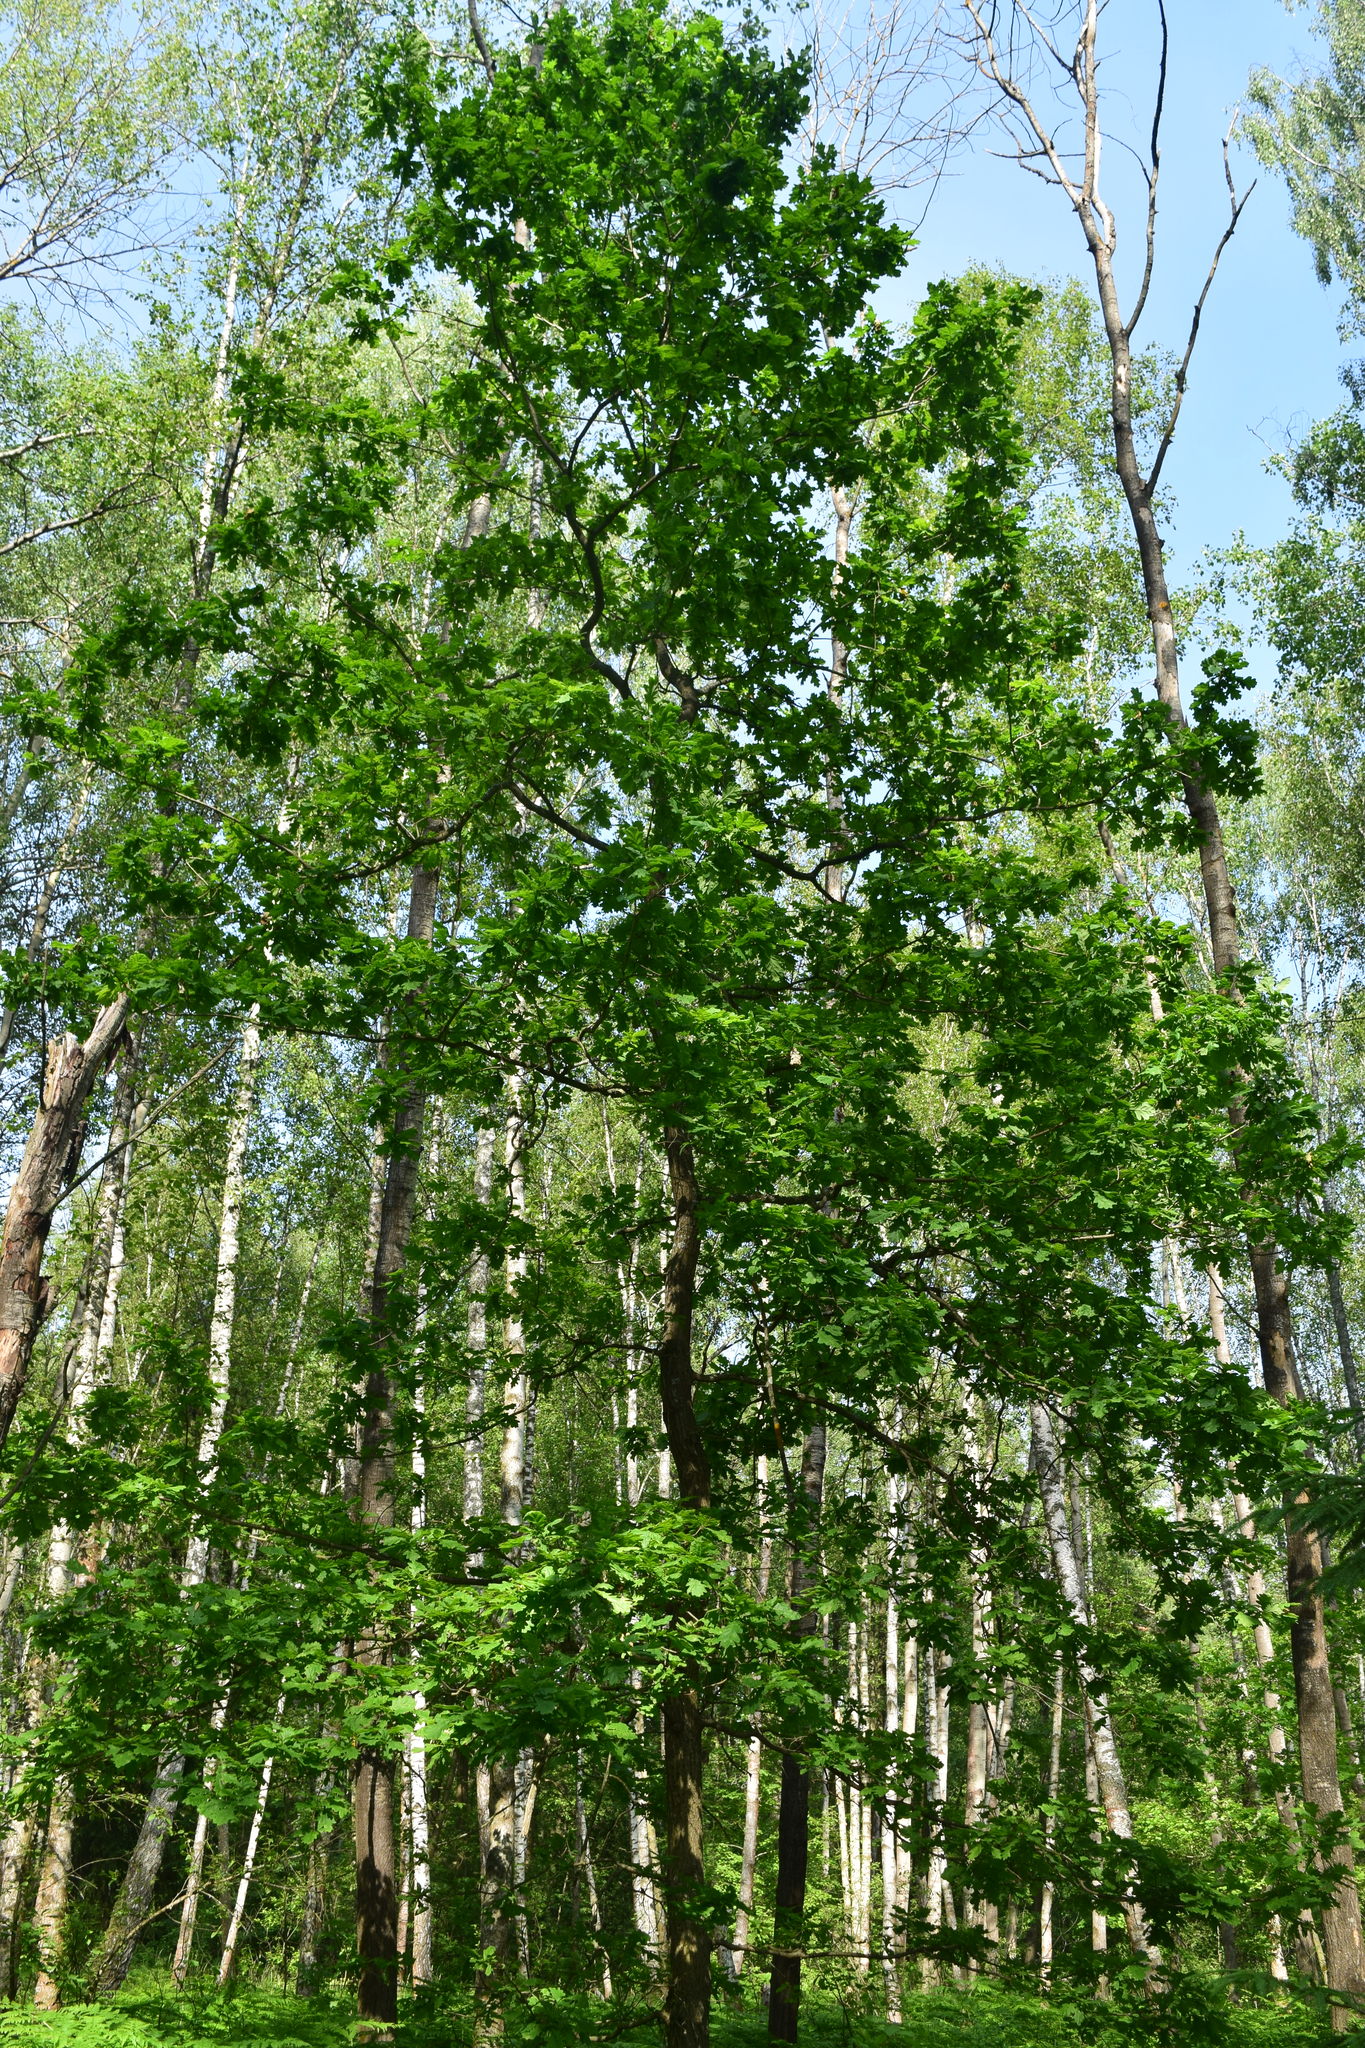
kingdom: Plantae
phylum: Tracheophyta
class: Magnoliopsida
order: Fagales
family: Fagaceae
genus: Quercus
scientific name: Quercus robur
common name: Pedunculate oak
